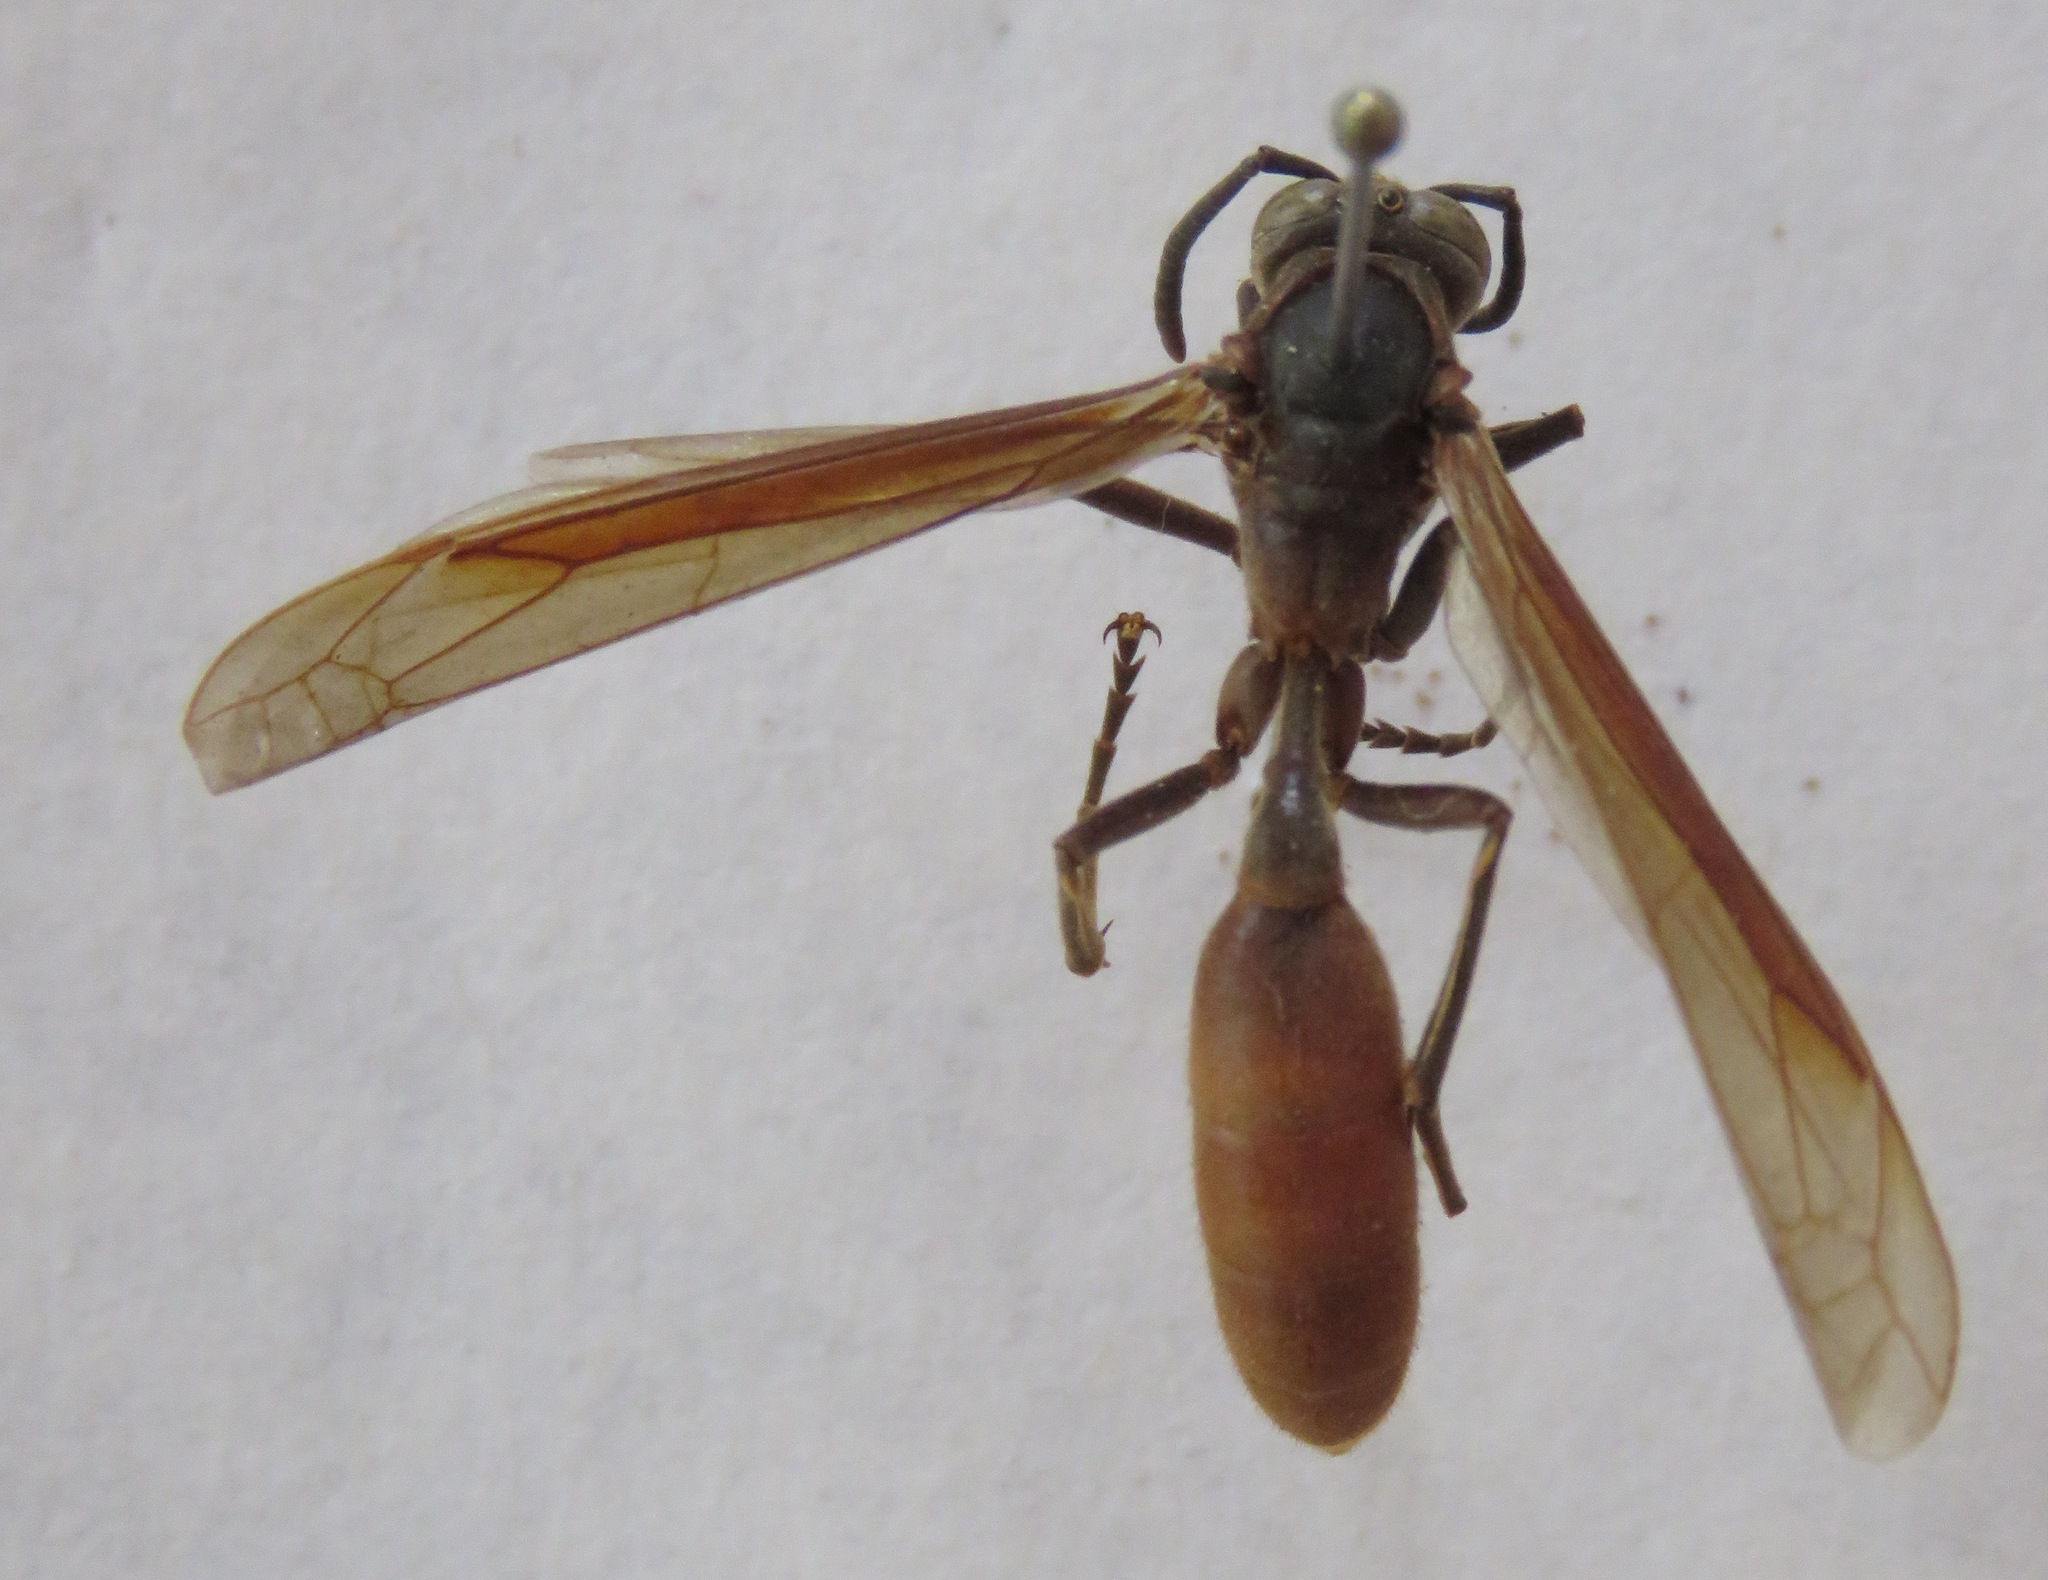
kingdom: Animalia
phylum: Arthropoda
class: Insecta
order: Hymenoptera
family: Vespidae
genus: Apoica
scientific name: Apoica thoracica
